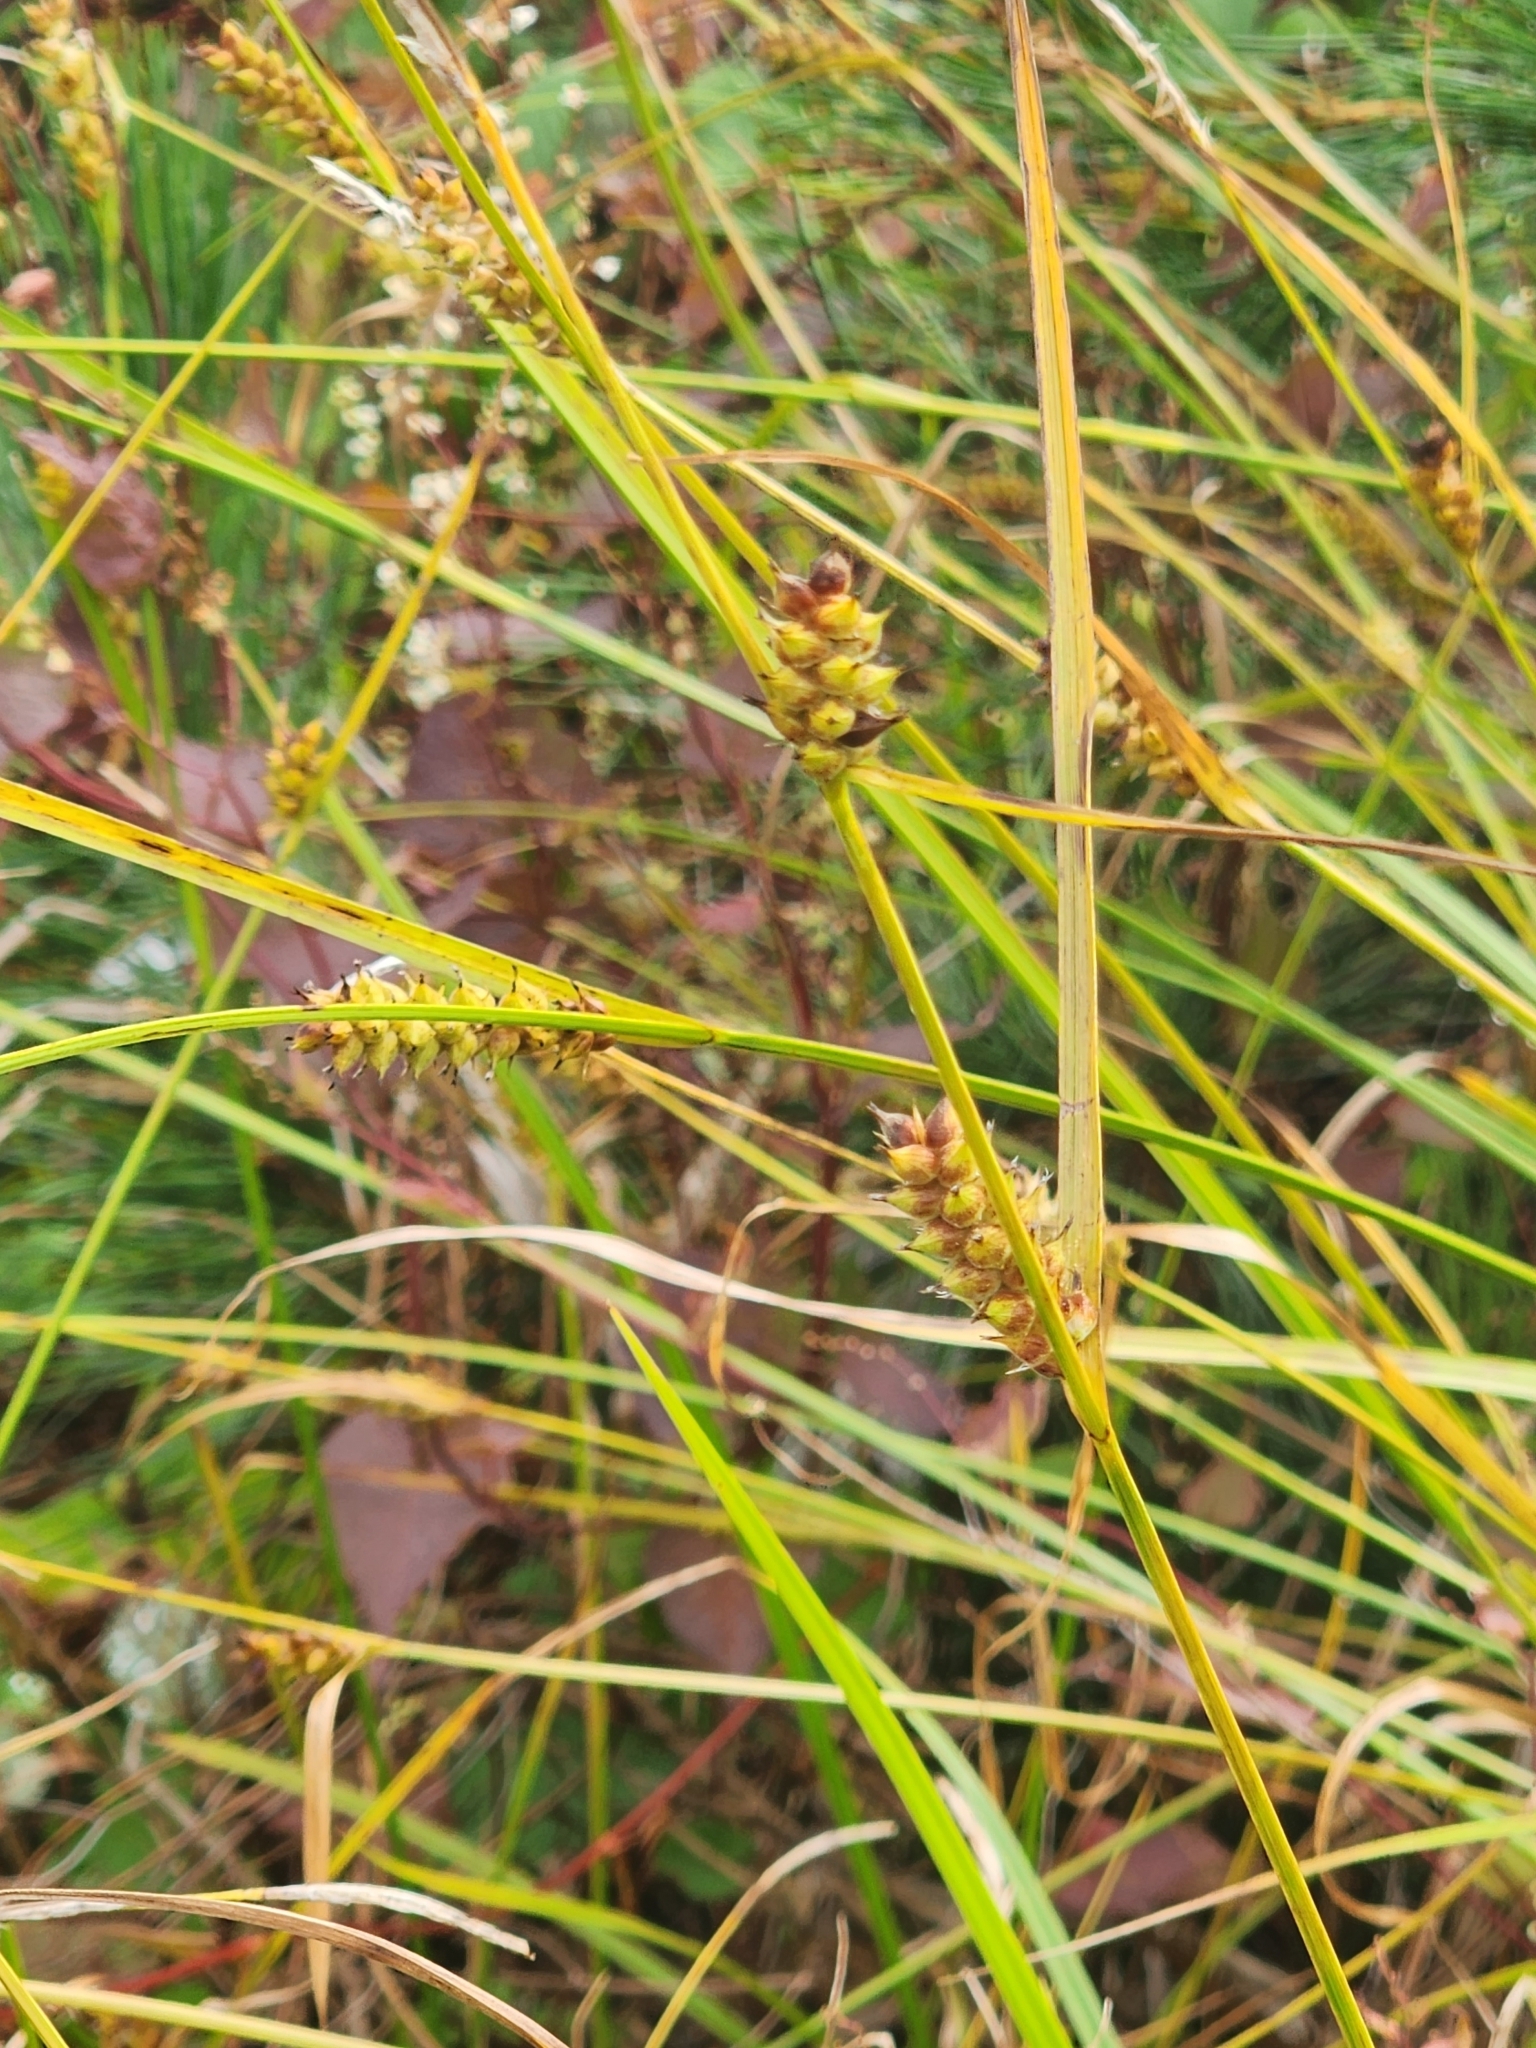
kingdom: Plantae
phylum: Tracheophyta
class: Liliopsida
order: Poales
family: Cyperaceae
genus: Carex
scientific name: Carex houghtoniana
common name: Houghton's sedge
